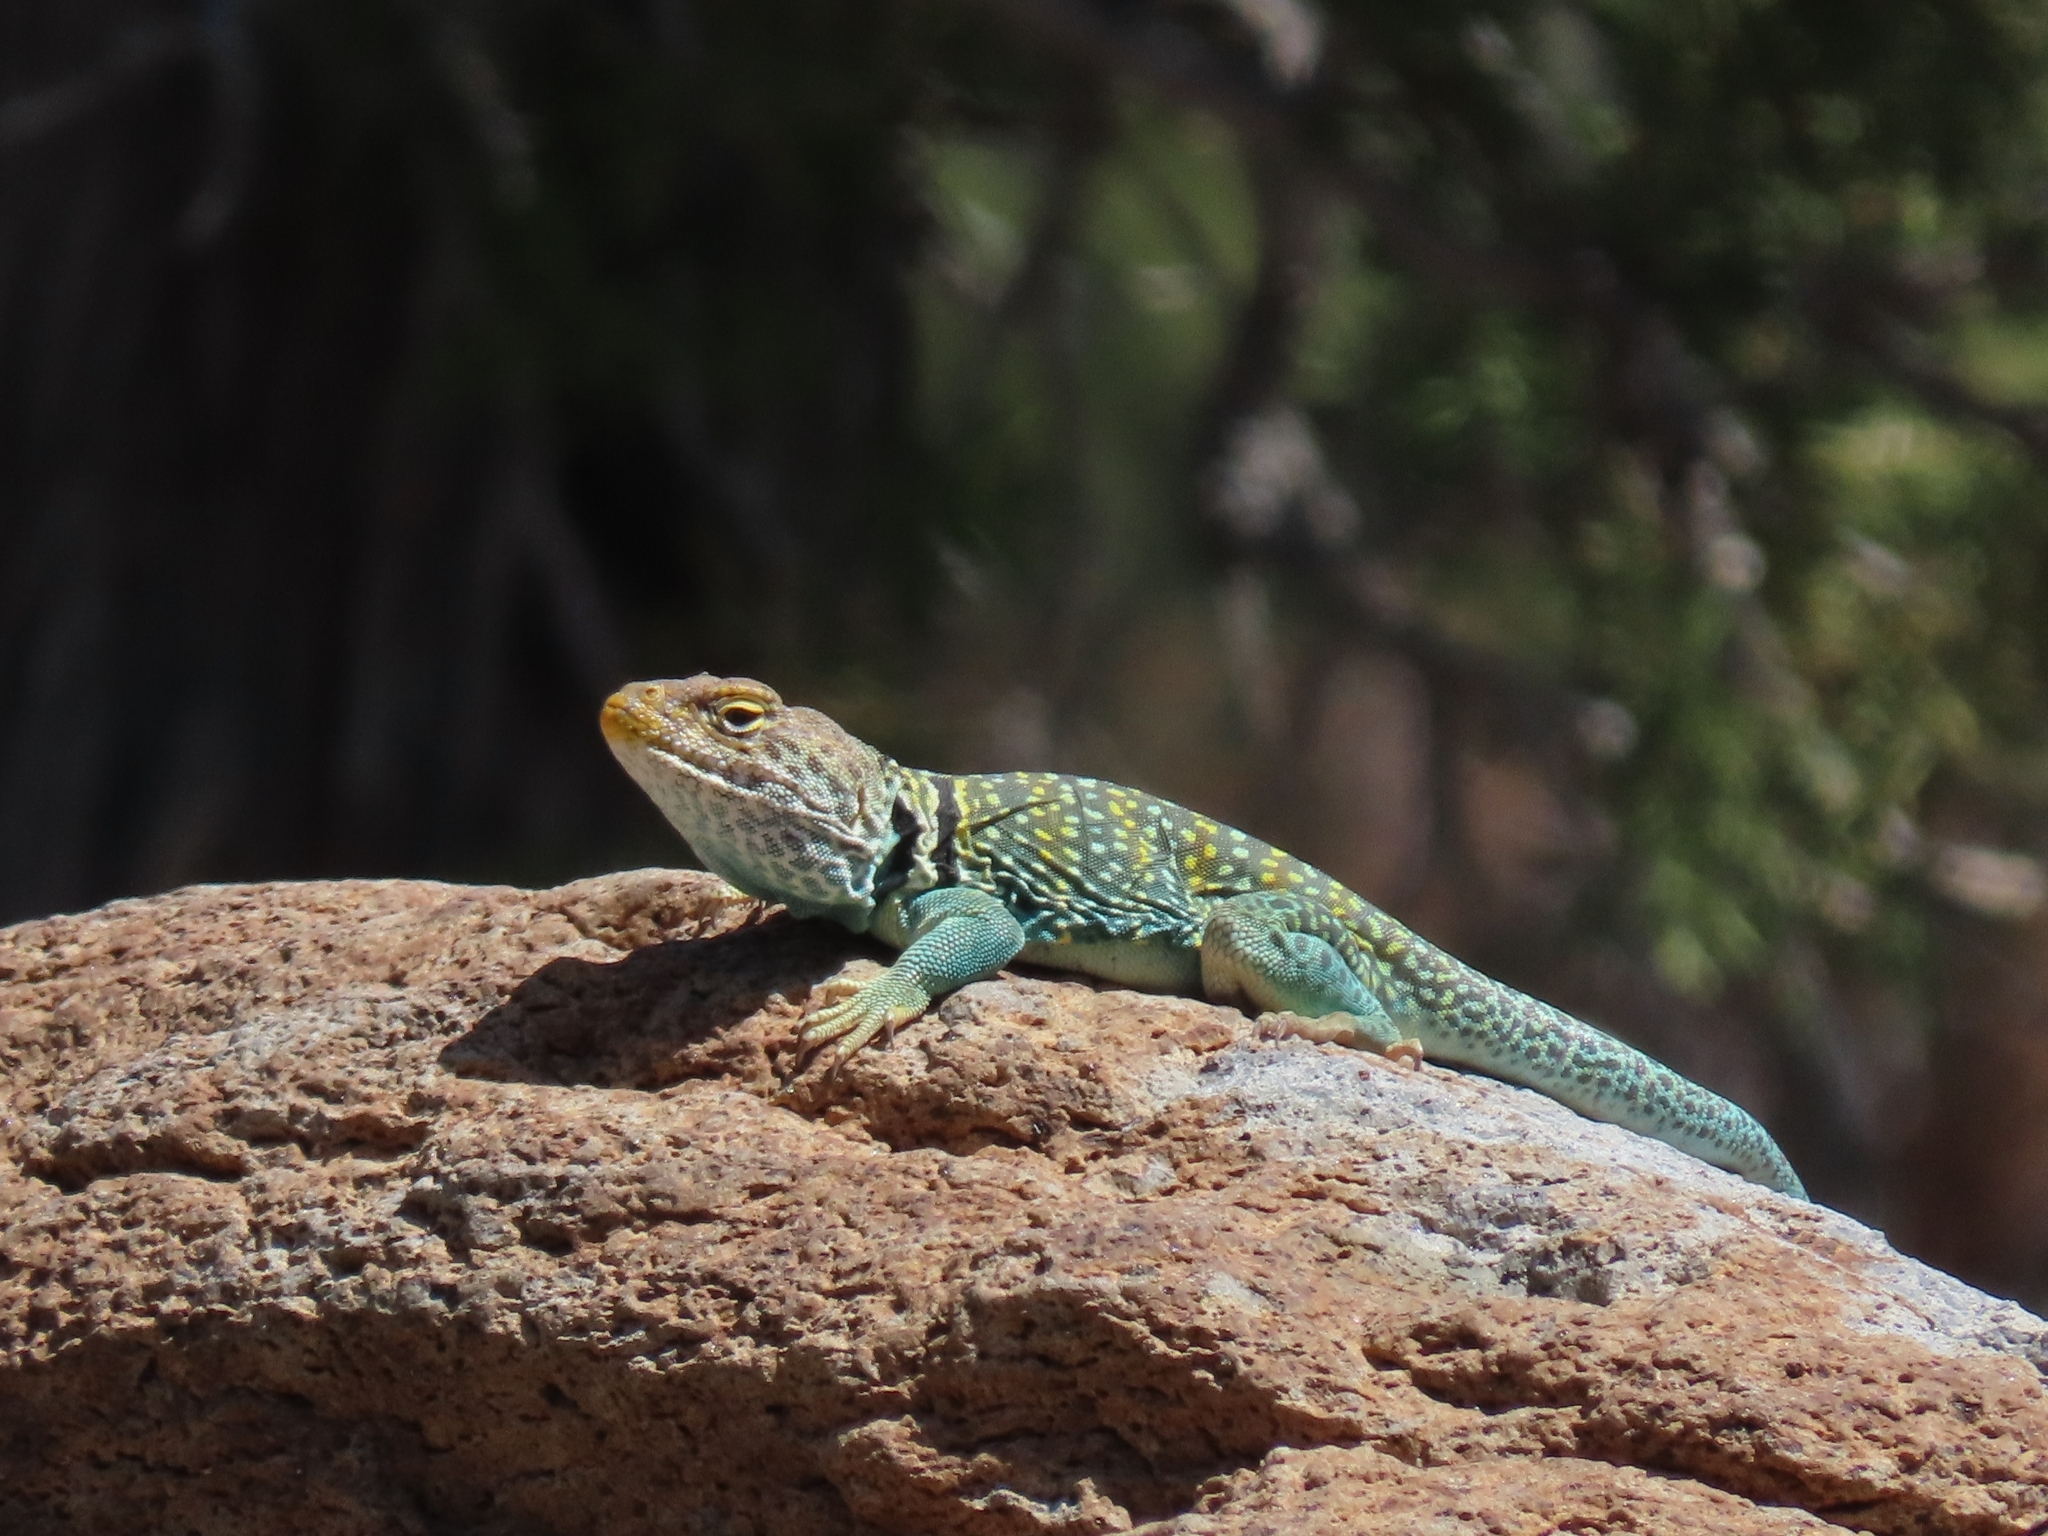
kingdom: Animalia
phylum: Chordata
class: Squamata
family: Crotaphytidae
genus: Crotaphytus
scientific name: Crotaphytus collaris
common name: Collared lizard
